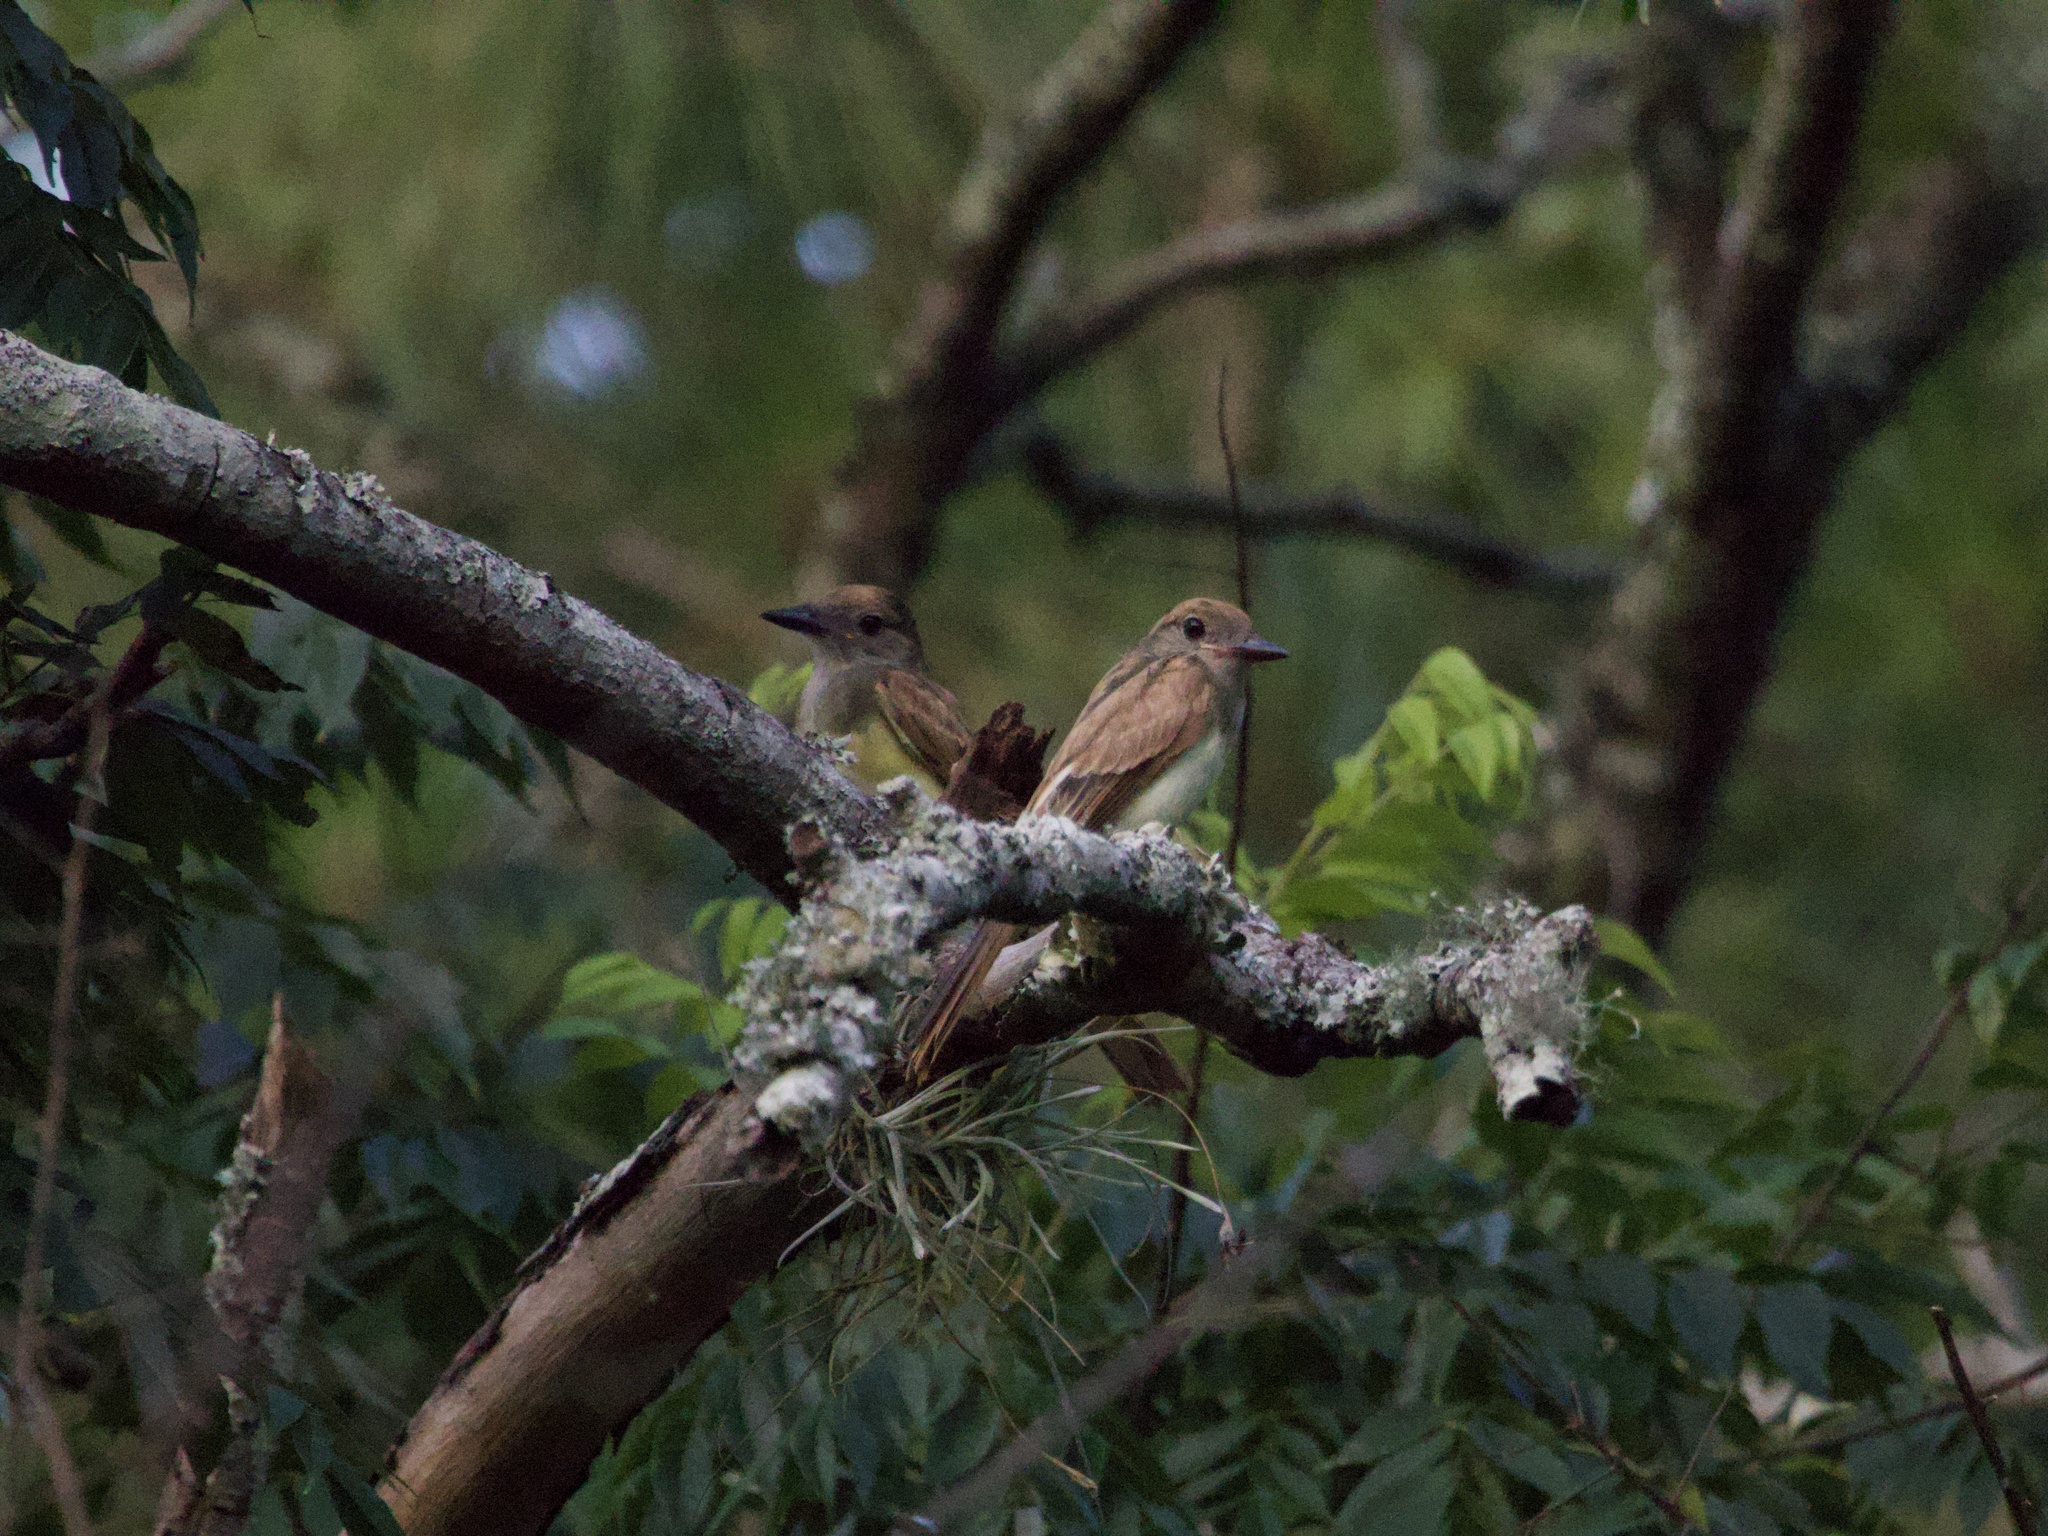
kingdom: Animalia
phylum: Chordata
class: Aves
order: Passeriformes
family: Tyrannidae
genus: Myiarchus
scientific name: Myiarchus crinitus
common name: Great crested flycatcher
